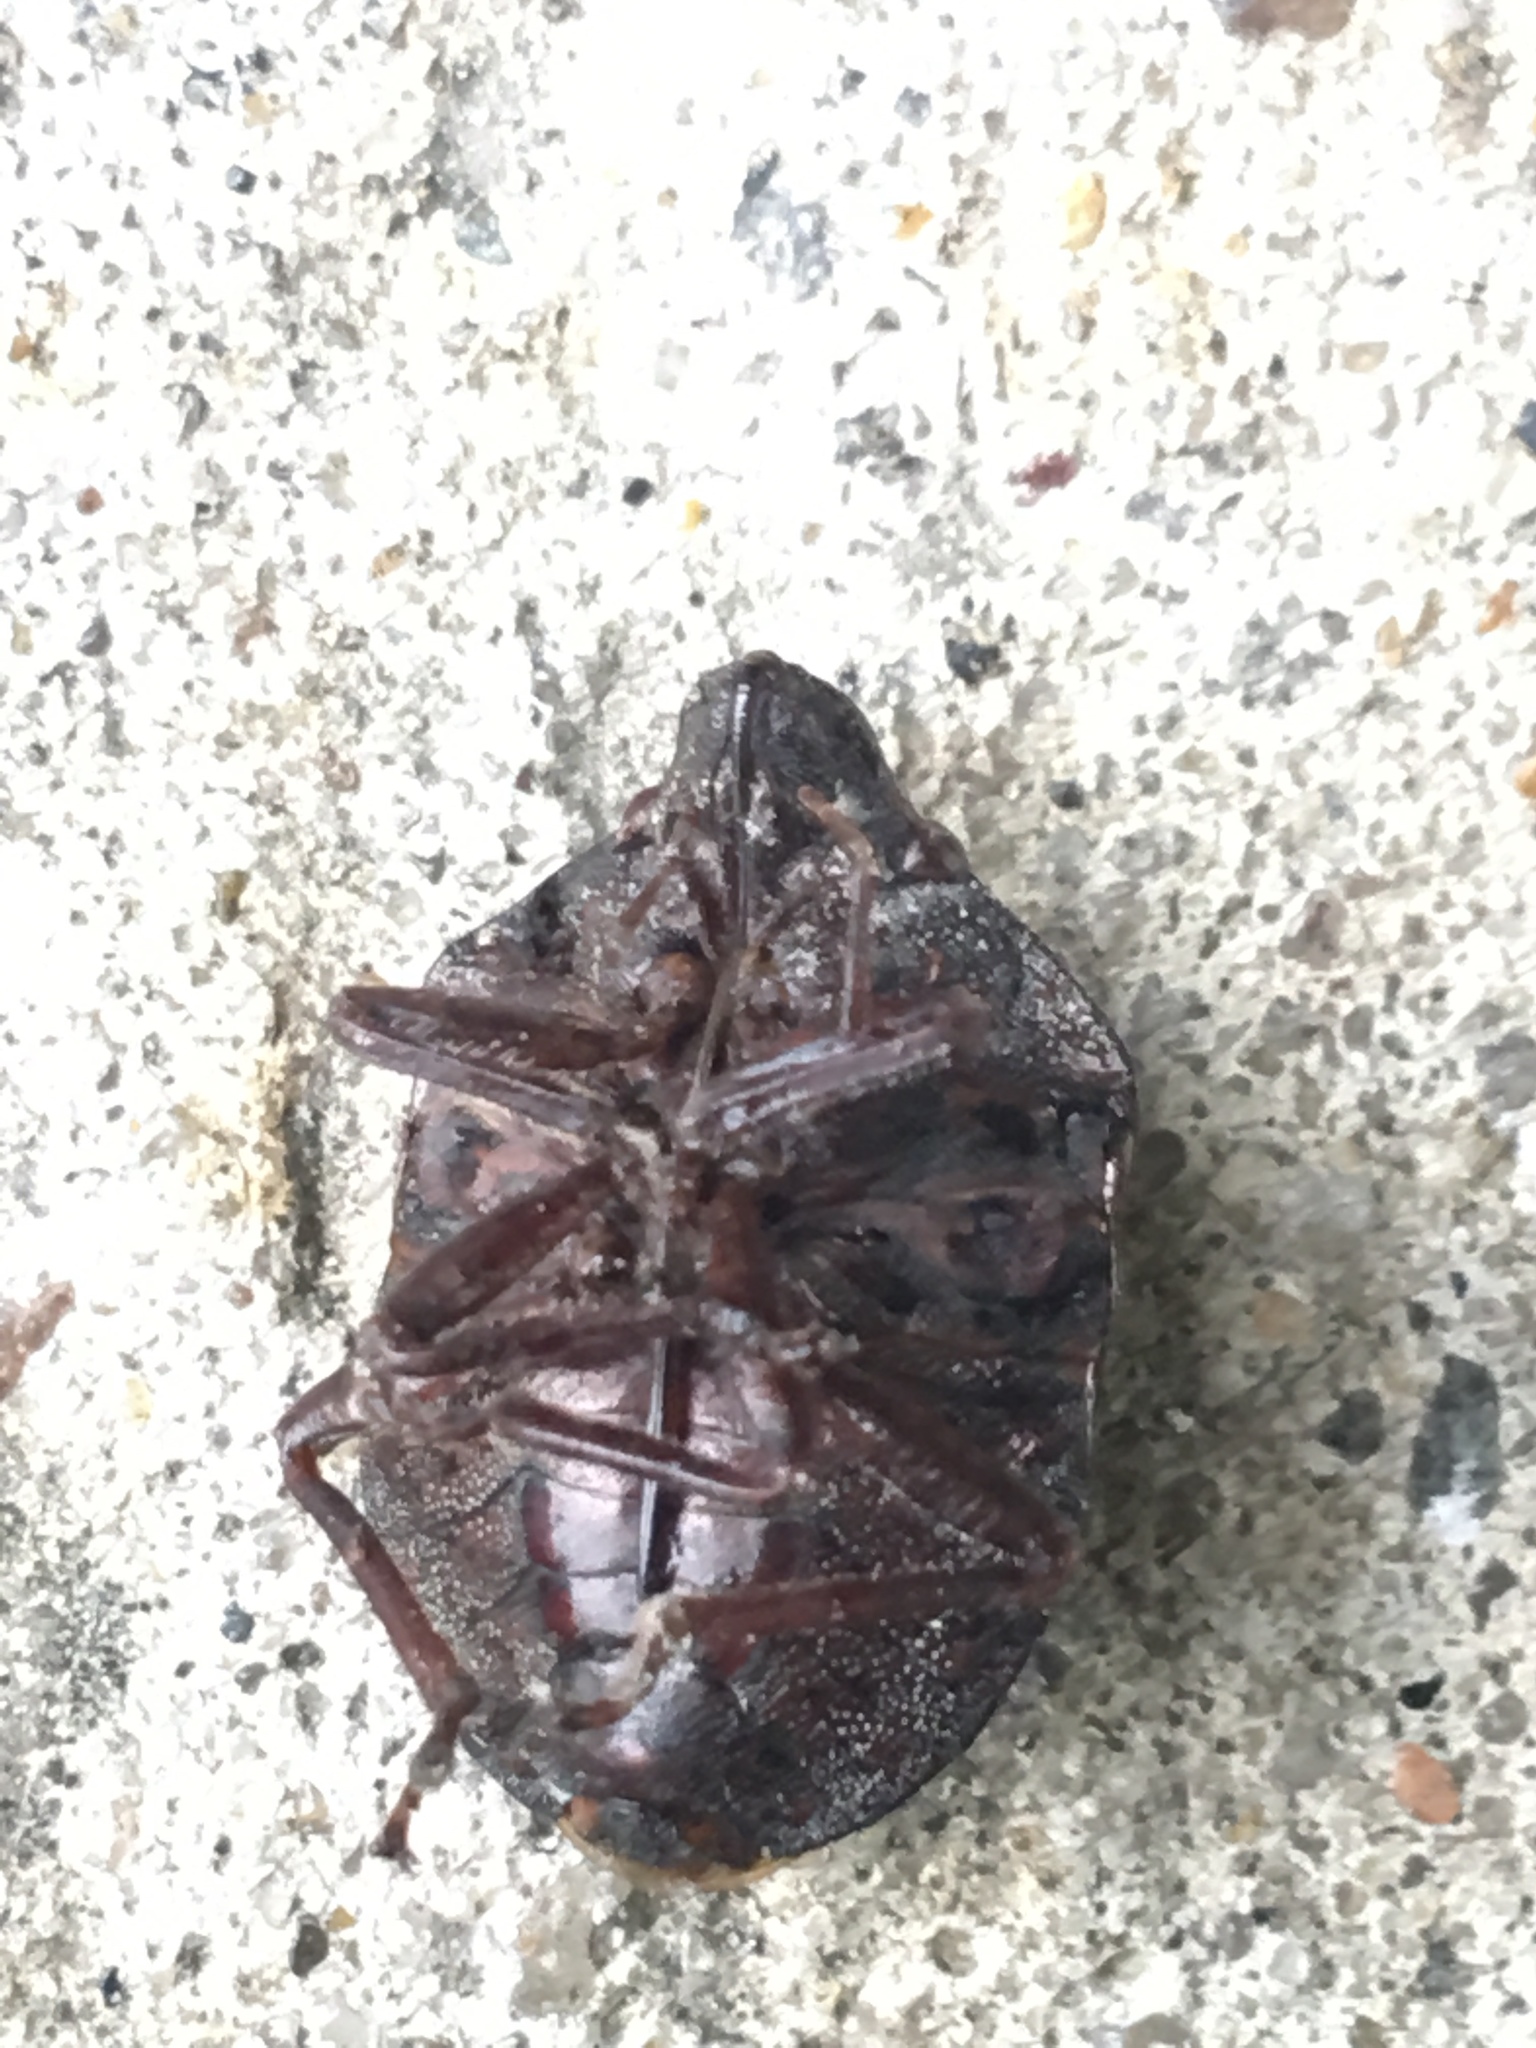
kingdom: Animalia
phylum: Arthropoda
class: Insecta
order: Hemiptera
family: Scutelleridae
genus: Tetyra
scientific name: Tetyra bipunctata
